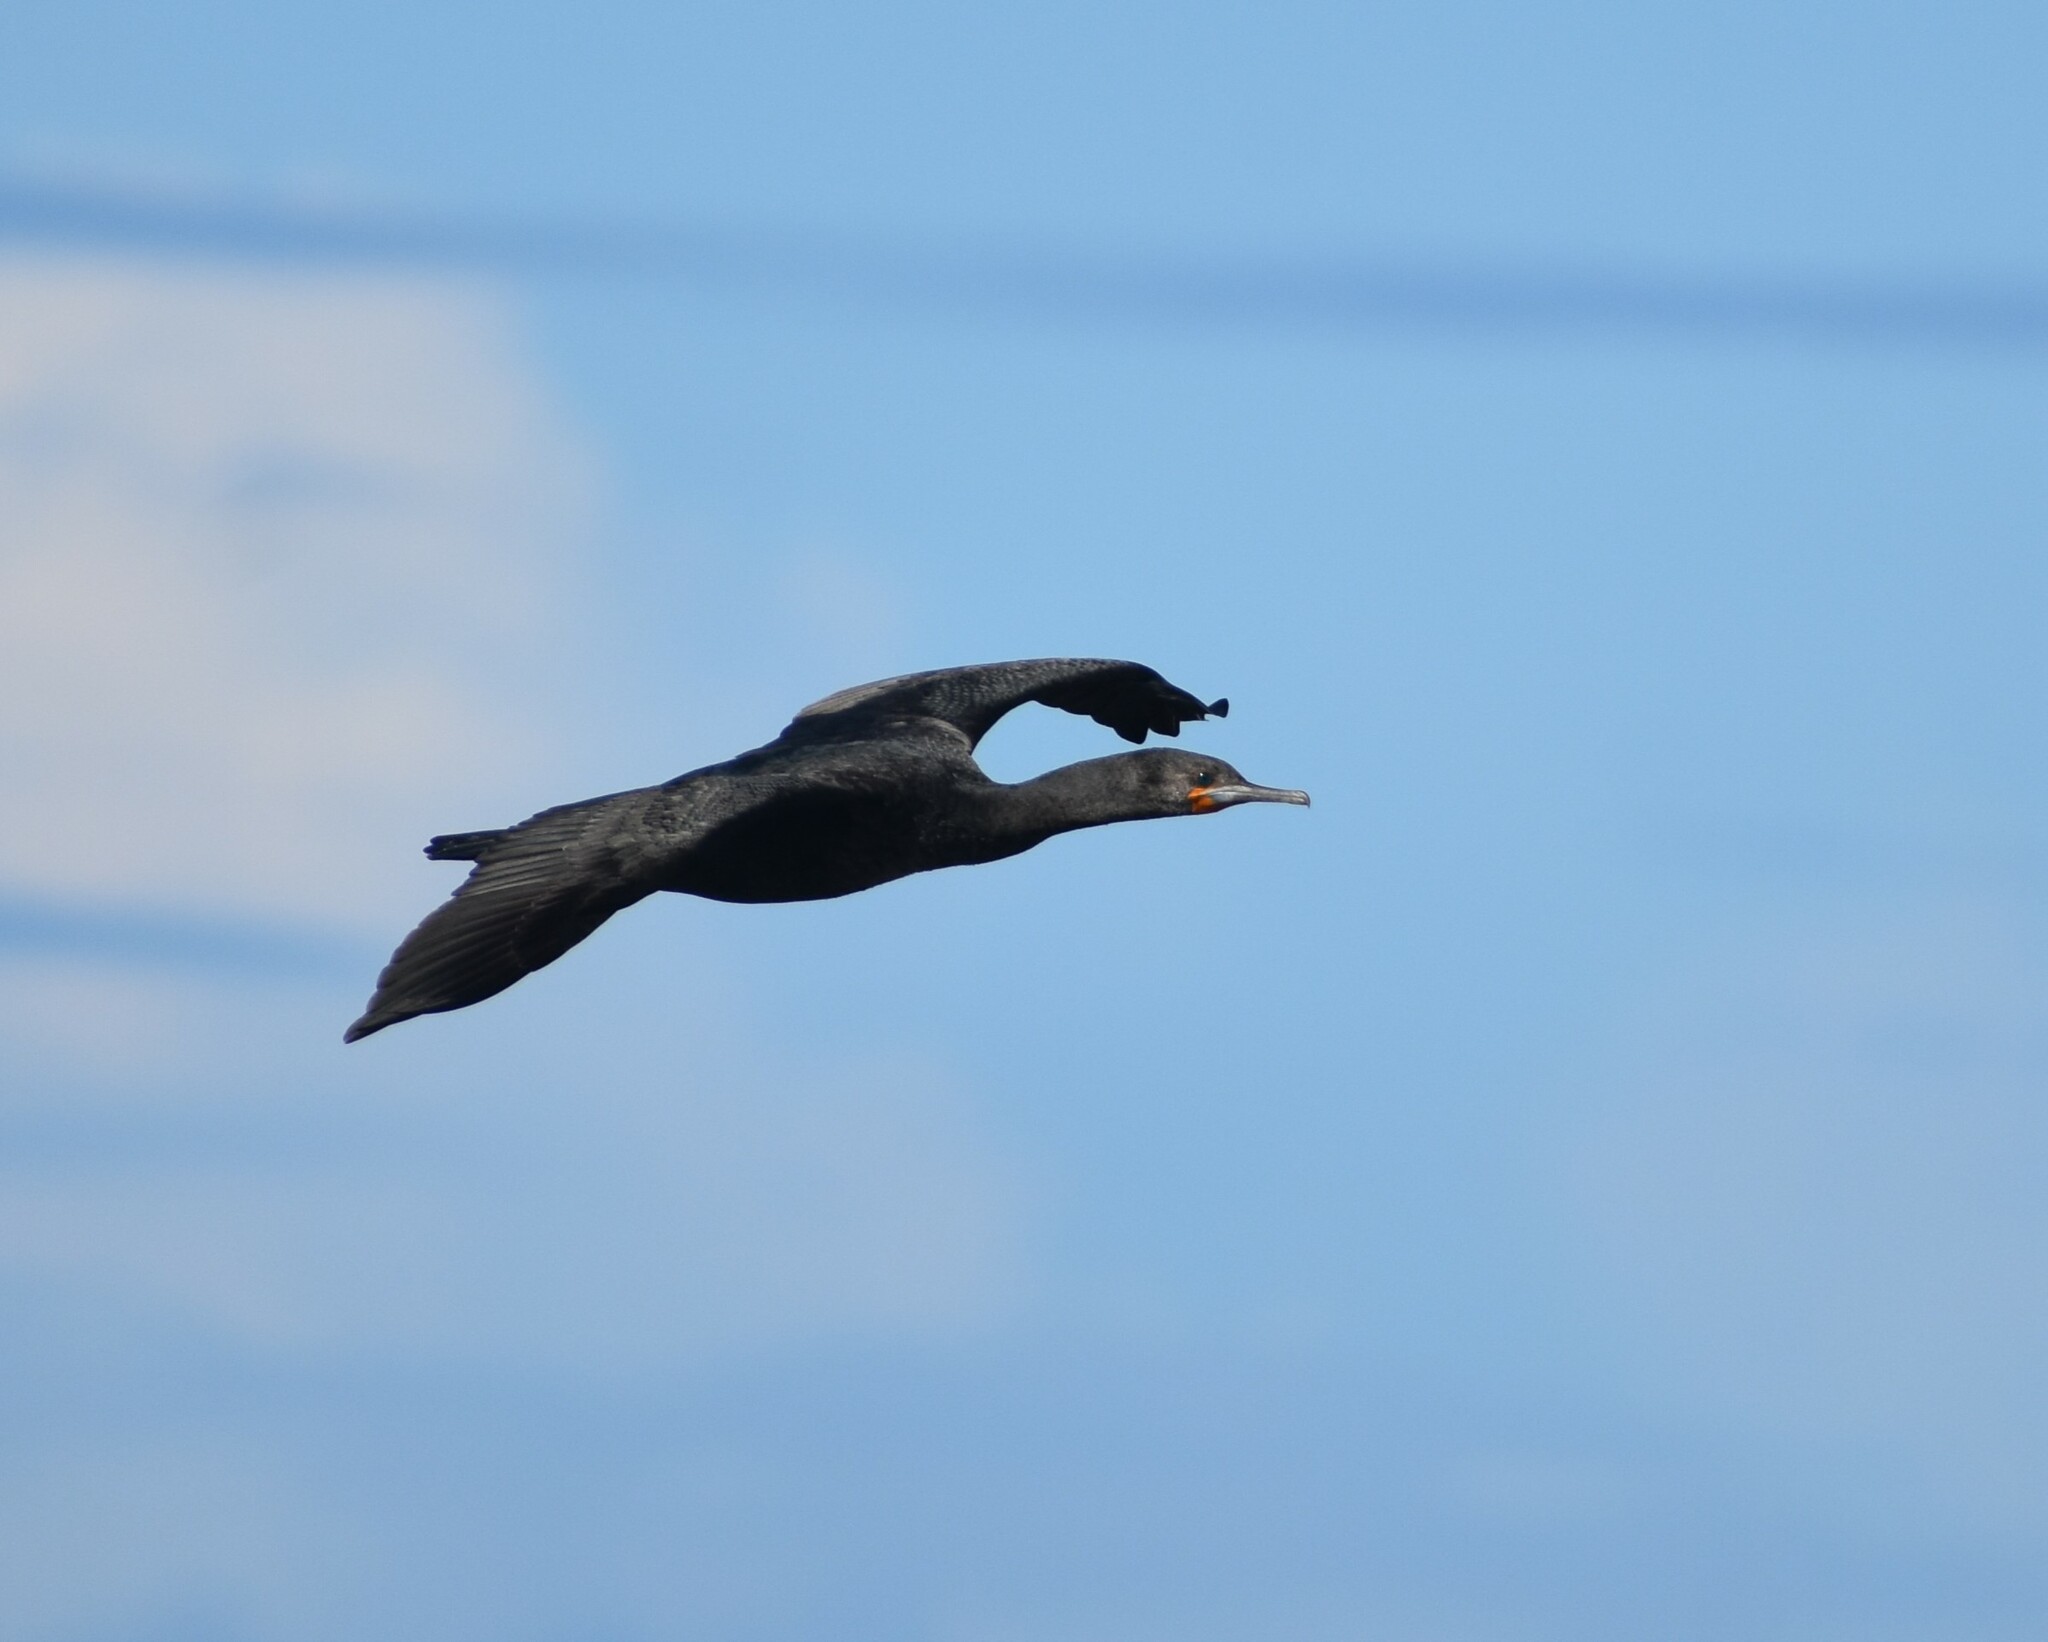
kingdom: Animalia
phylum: Chordata
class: Aves
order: Suliformes
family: Phalacrocoracidae
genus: Phalacrocorax
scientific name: Phalacrocorax capensis
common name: Cape cormorant
